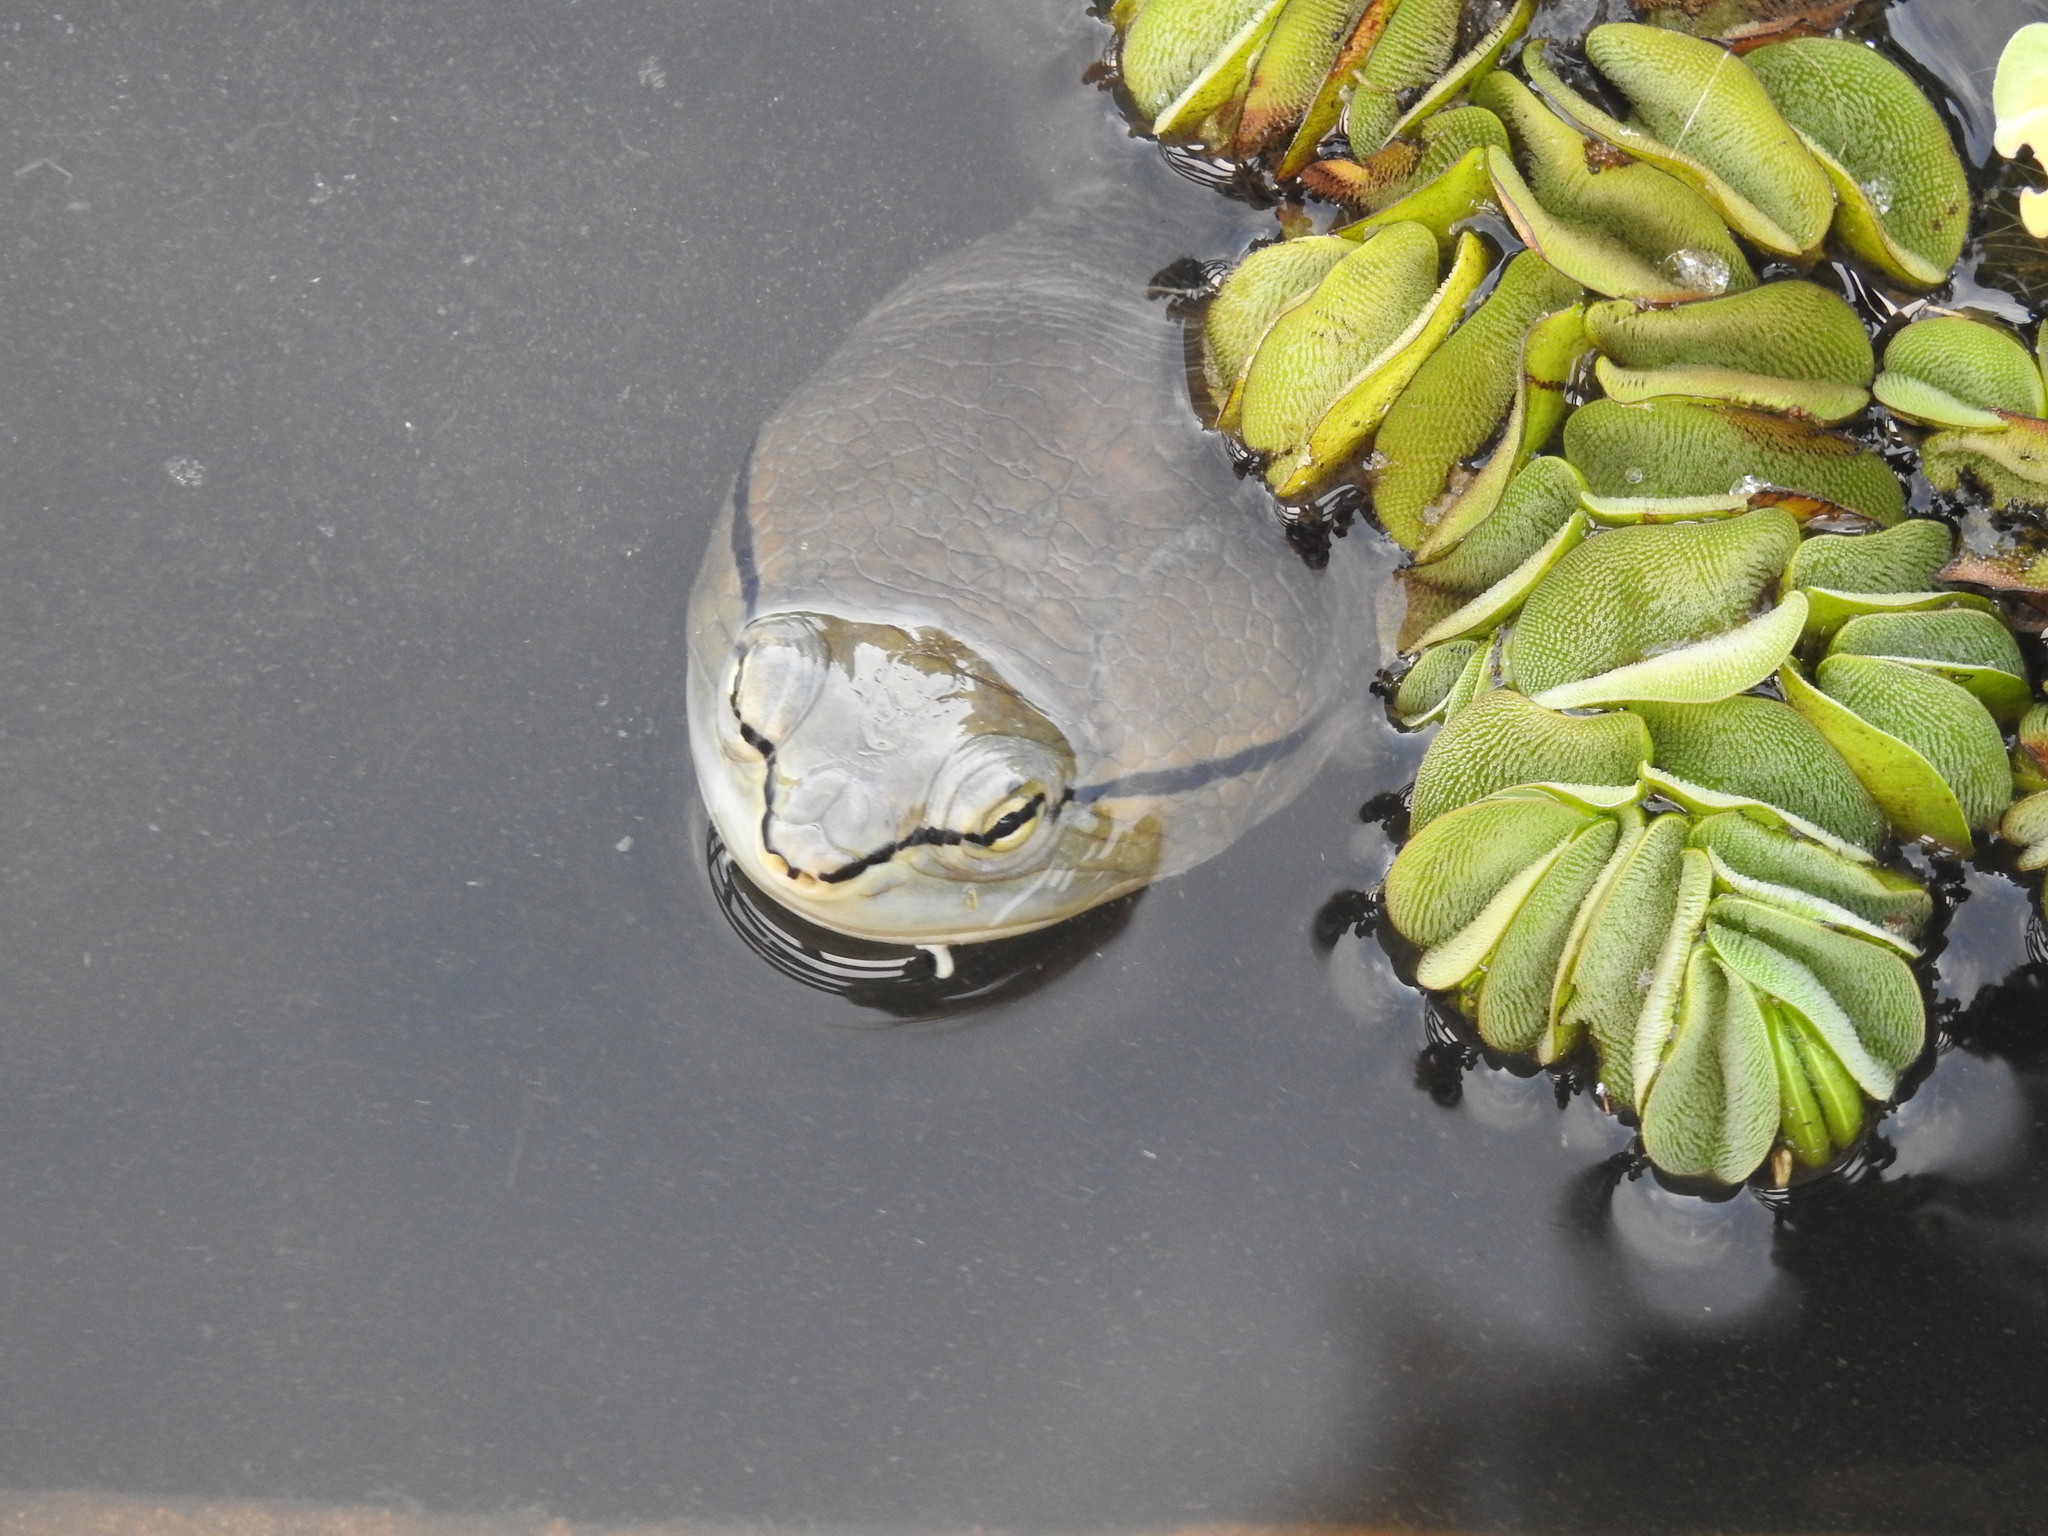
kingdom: Animalia
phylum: Chordata
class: Testudines
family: Chelidae
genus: Phrynops
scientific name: Phrynops hilarii
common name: Side-necked turtle of saint hillaire
